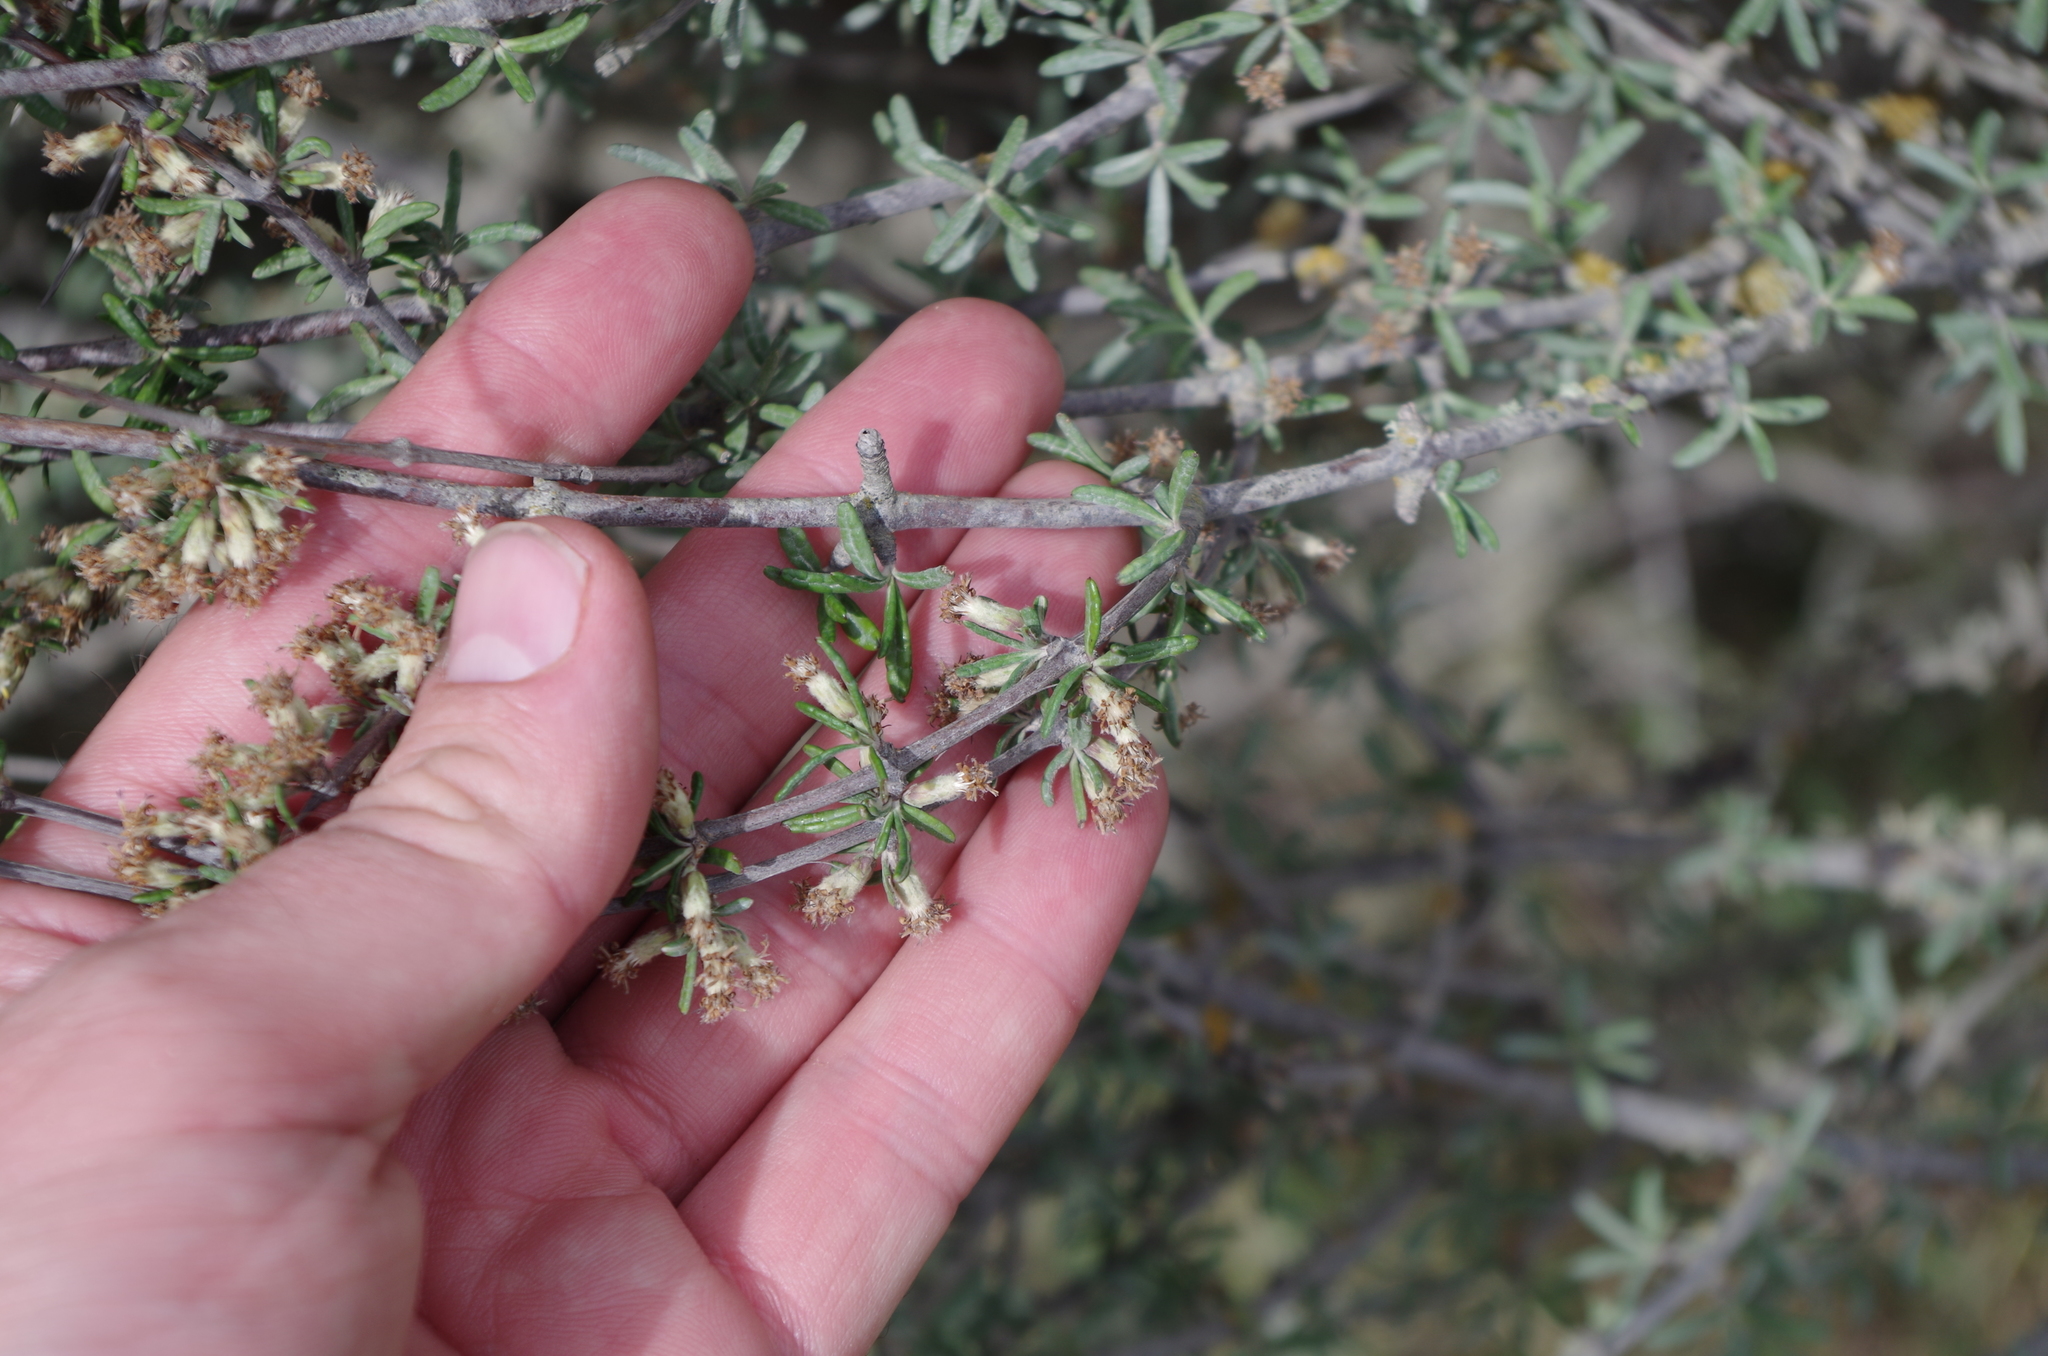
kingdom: Plantae
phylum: Tracheophyta
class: Magnoliopsida
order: Asterales
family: Asteraceae
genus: Olearia
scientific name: Olearia bullata
